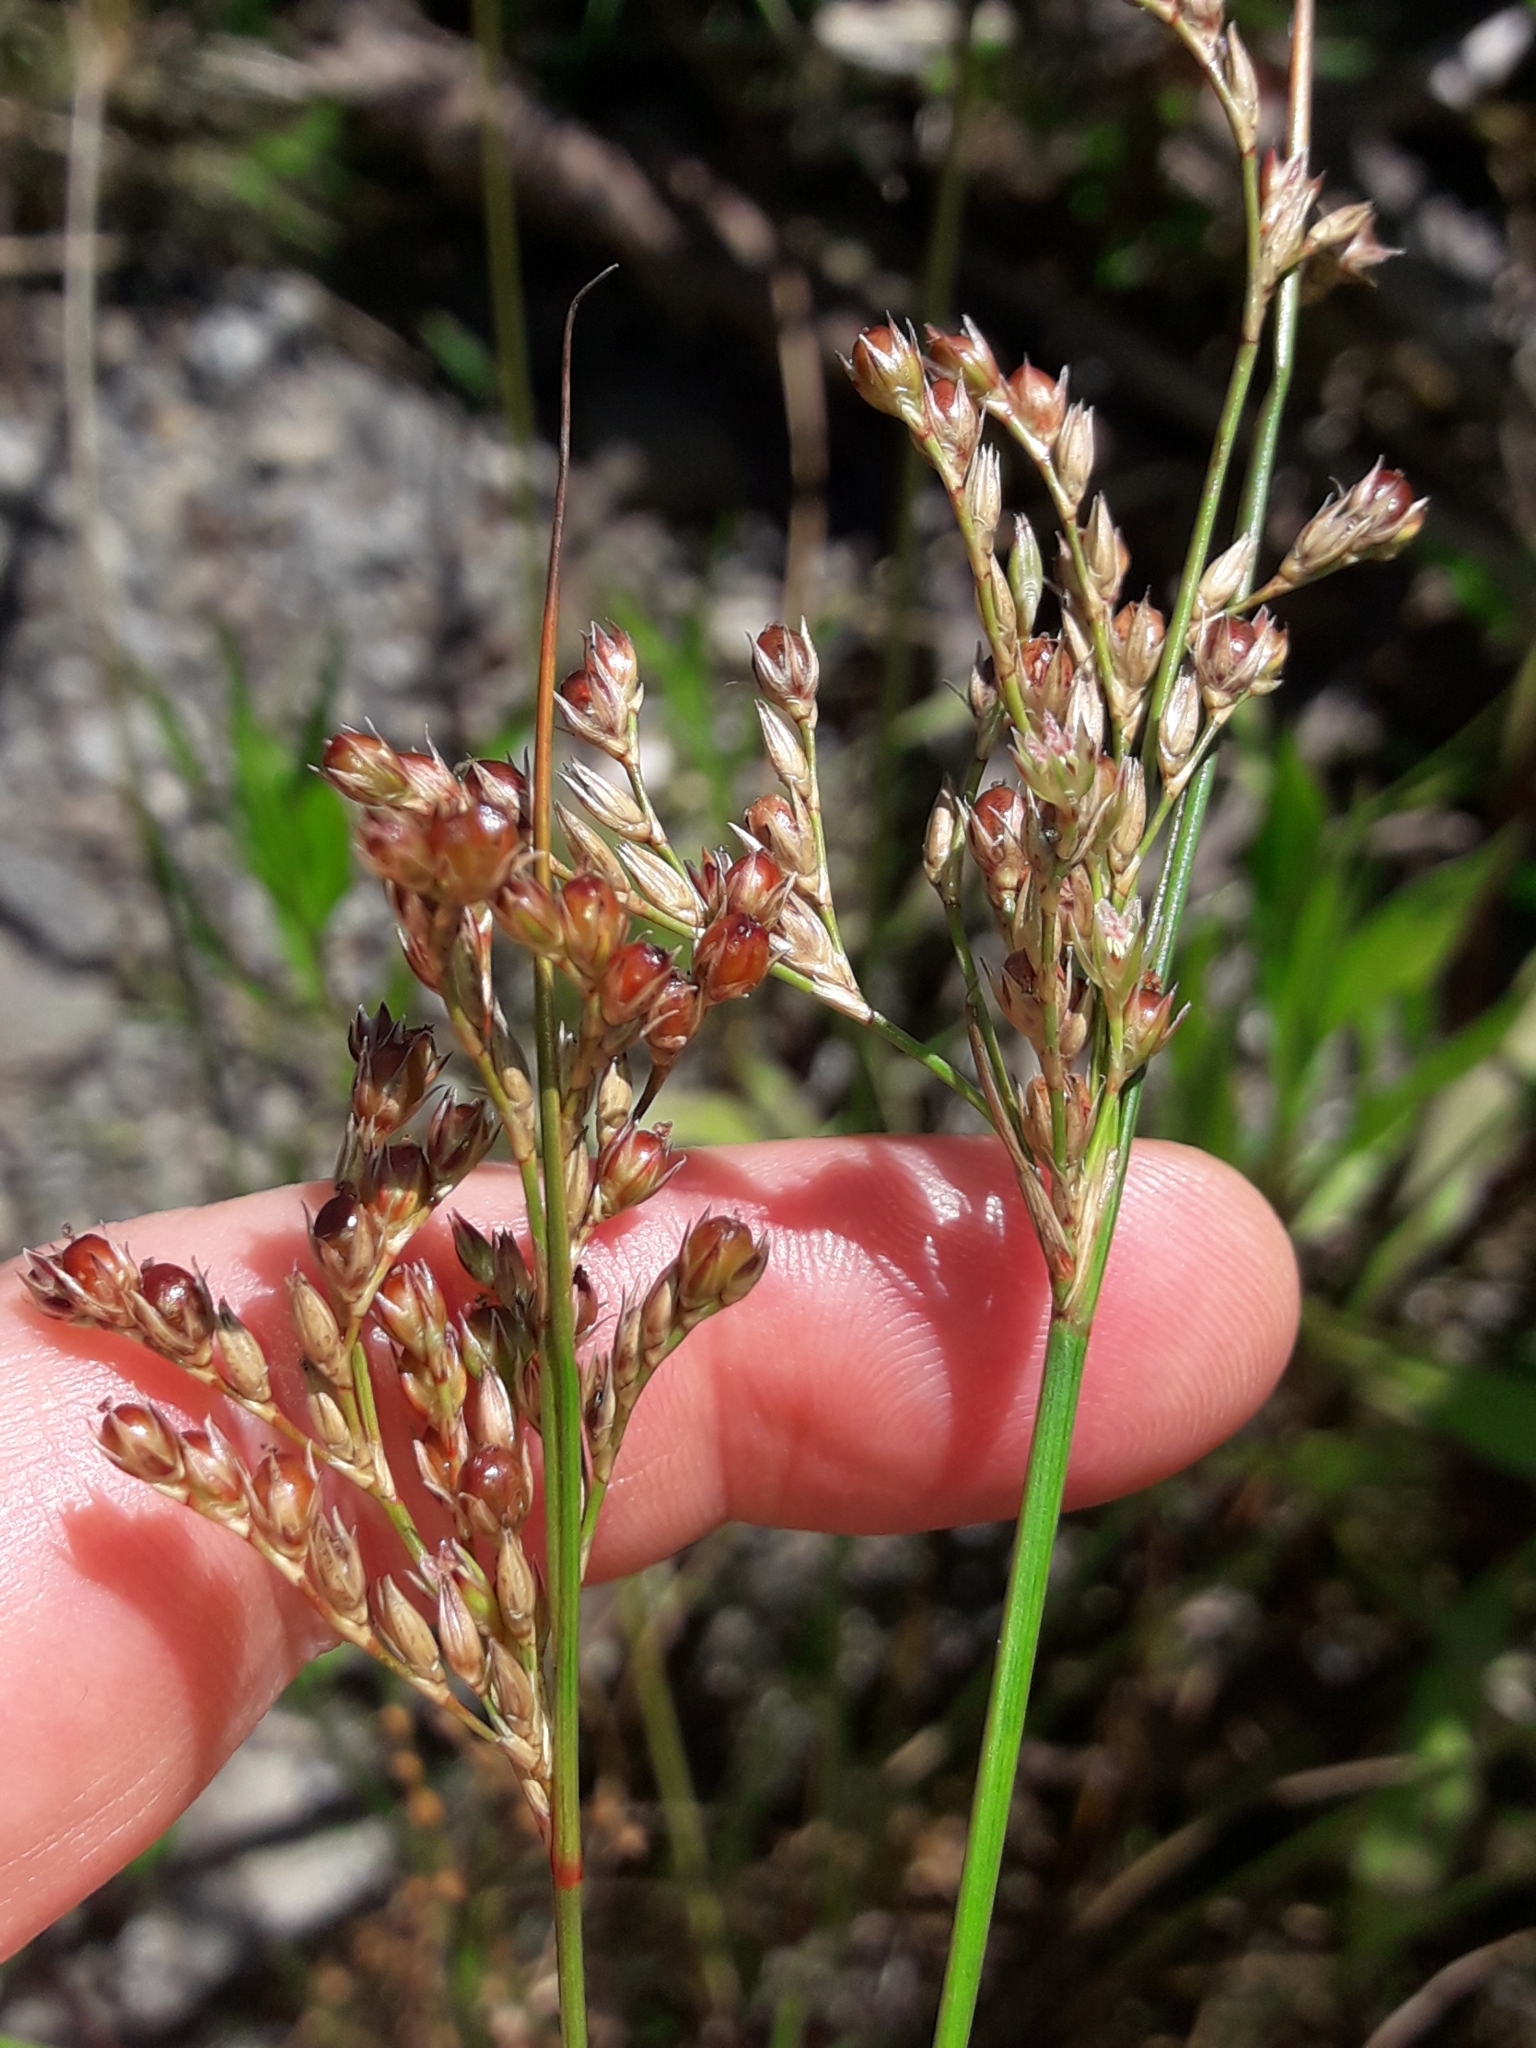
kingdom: Plantae
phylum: Tracheophyta
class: Liliopsida
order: Poales
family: Juncaceae
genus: Juncus
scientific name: Juncus dichotomus
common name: Forked rush
